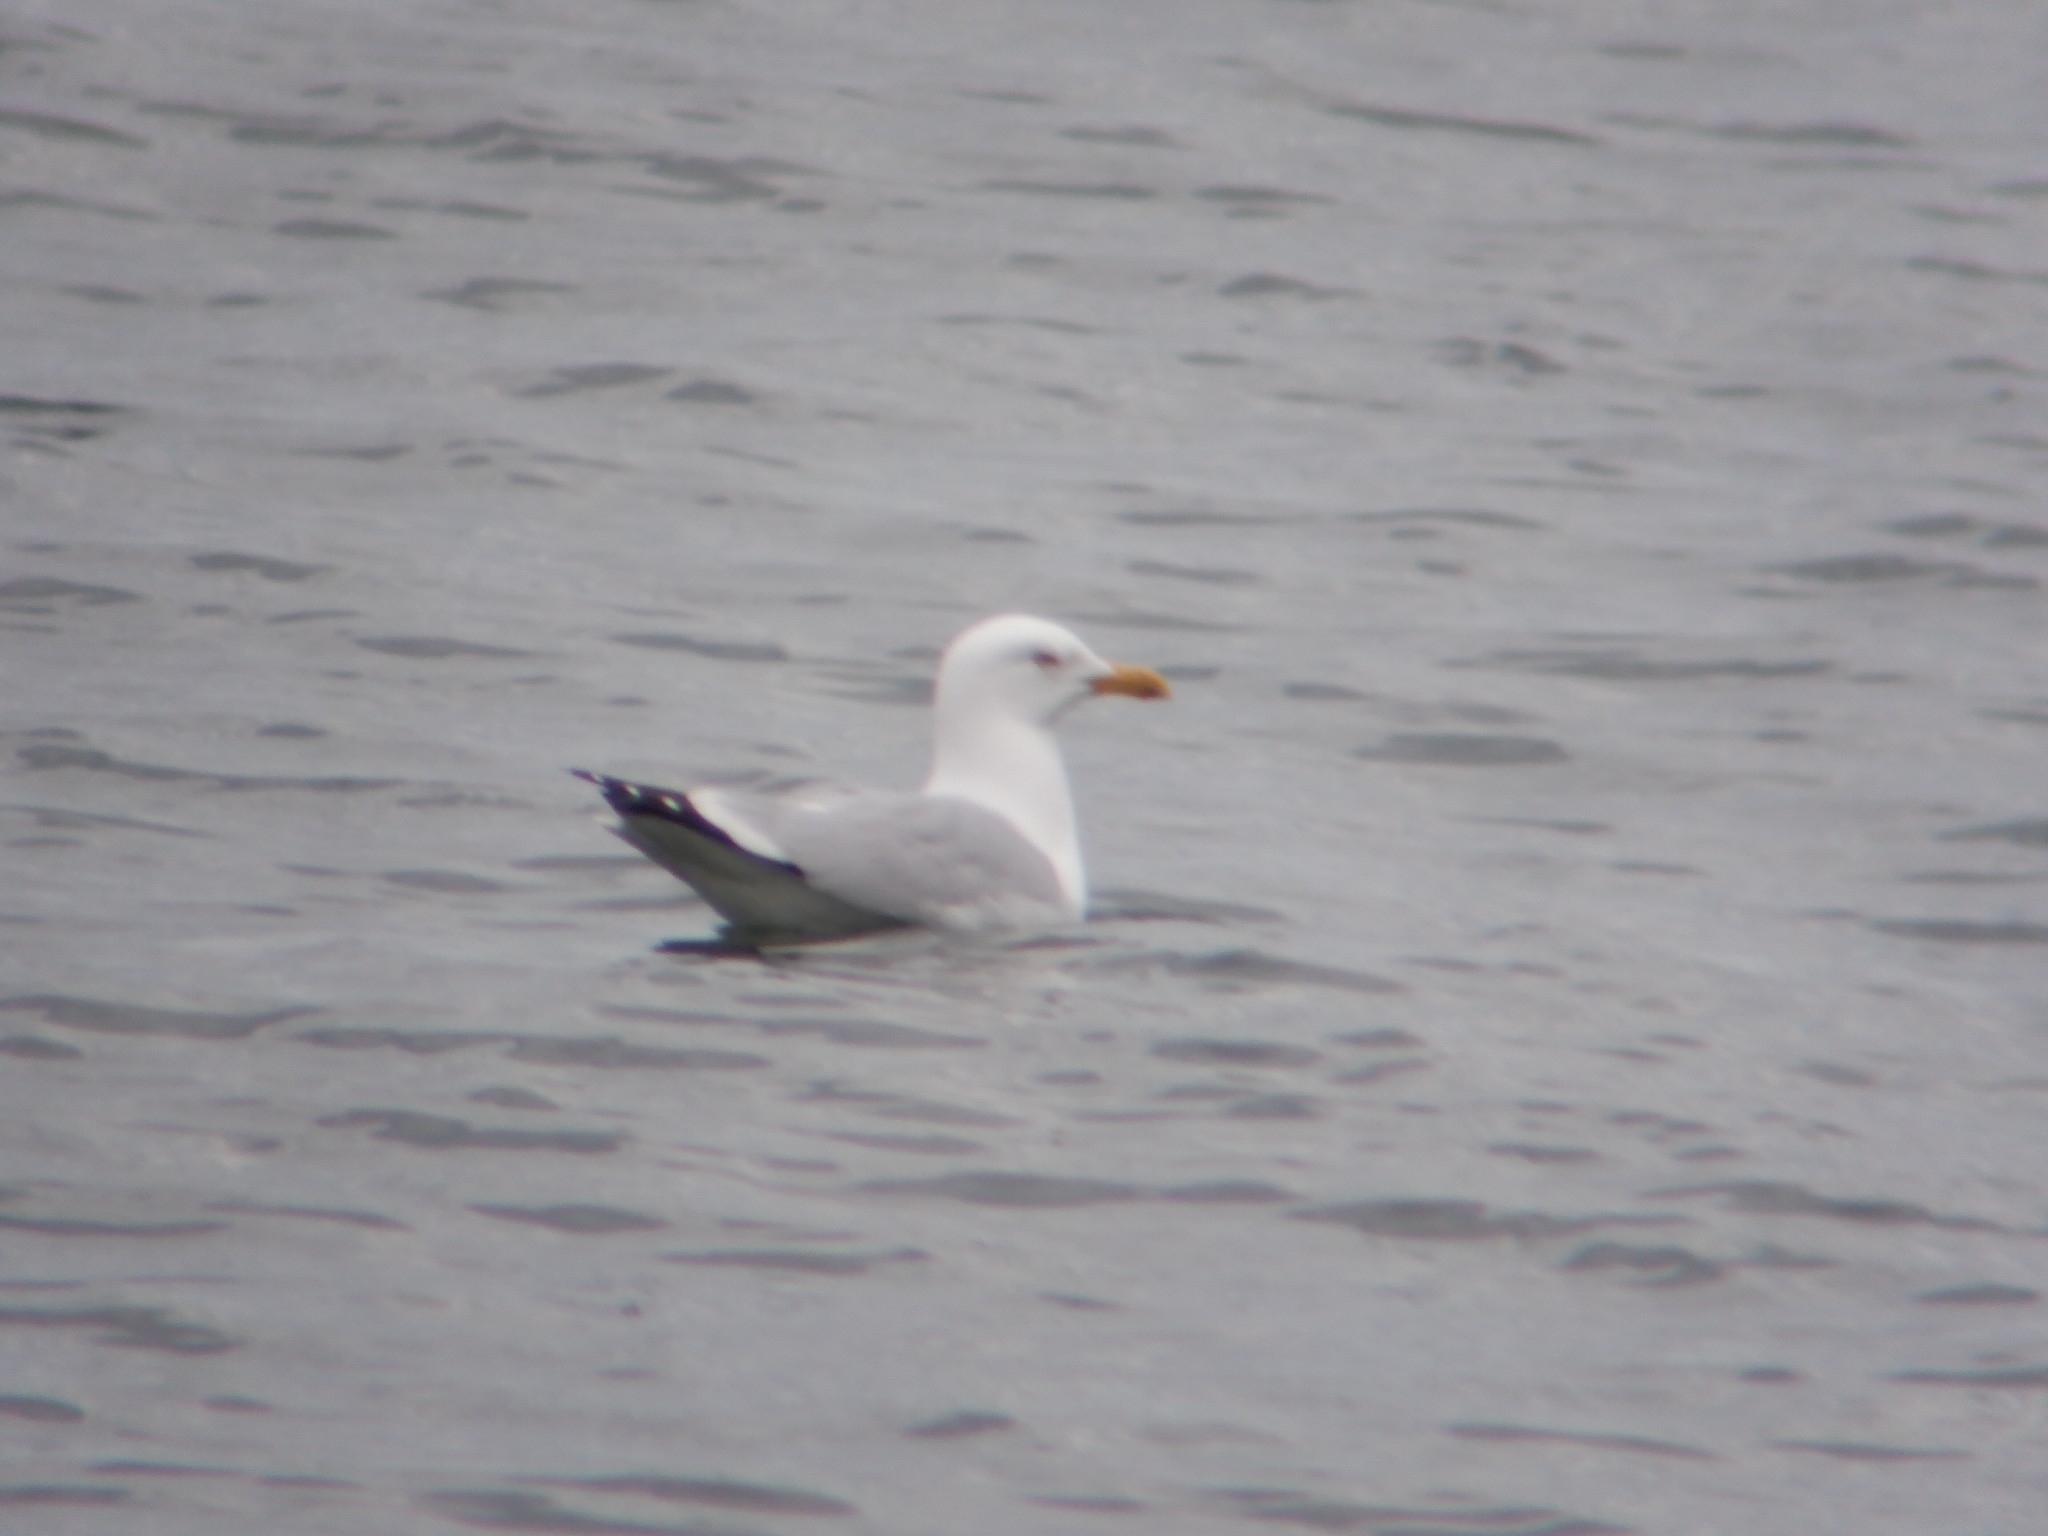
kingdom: Animalia
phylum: Chordata
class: Aves
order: Charadriiformes
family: Laridae
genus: Larus
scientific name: Larus argentatus
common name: Herring gull
